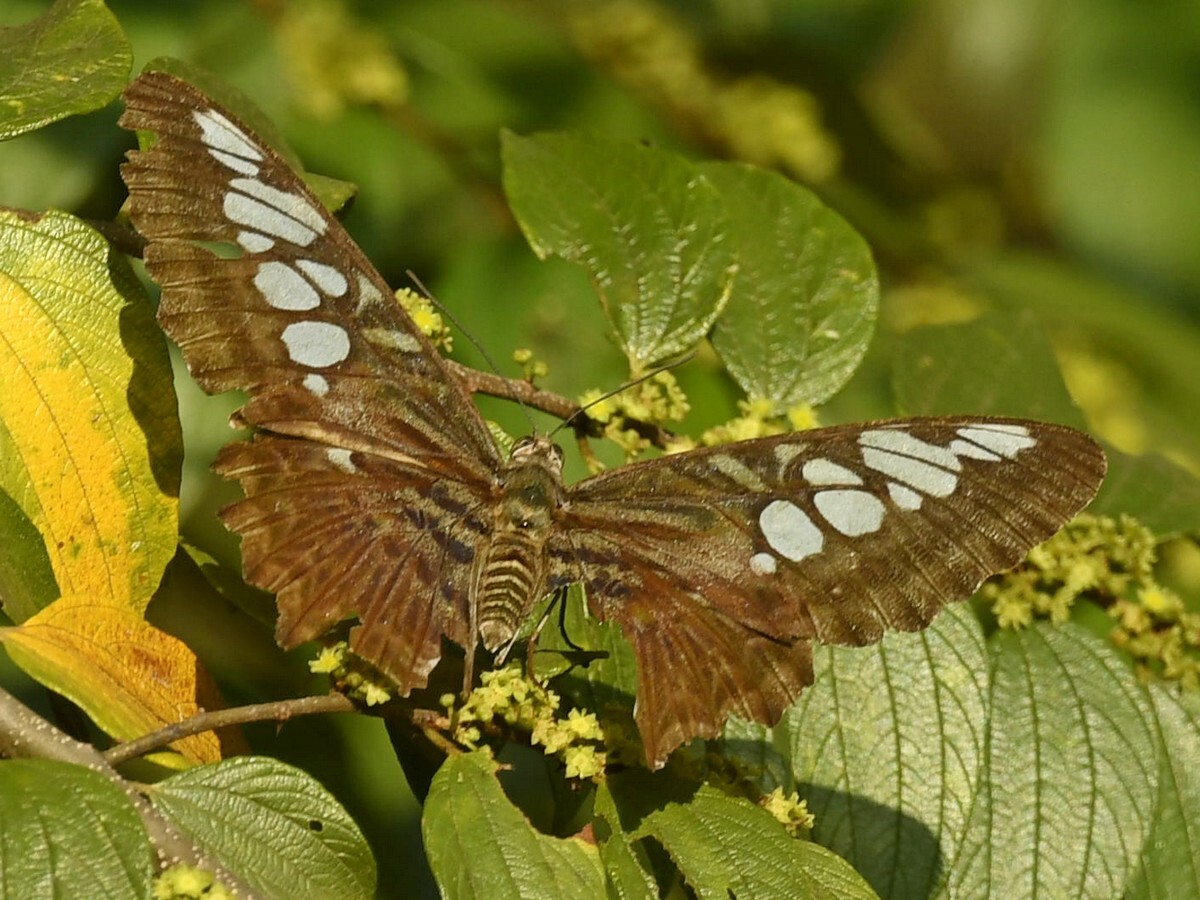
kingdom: Animalia
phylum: Arthropoda
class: Insecta
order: Lepidoptera
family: Nymphalidae
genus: Kallima
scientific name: Kallima sylvia
